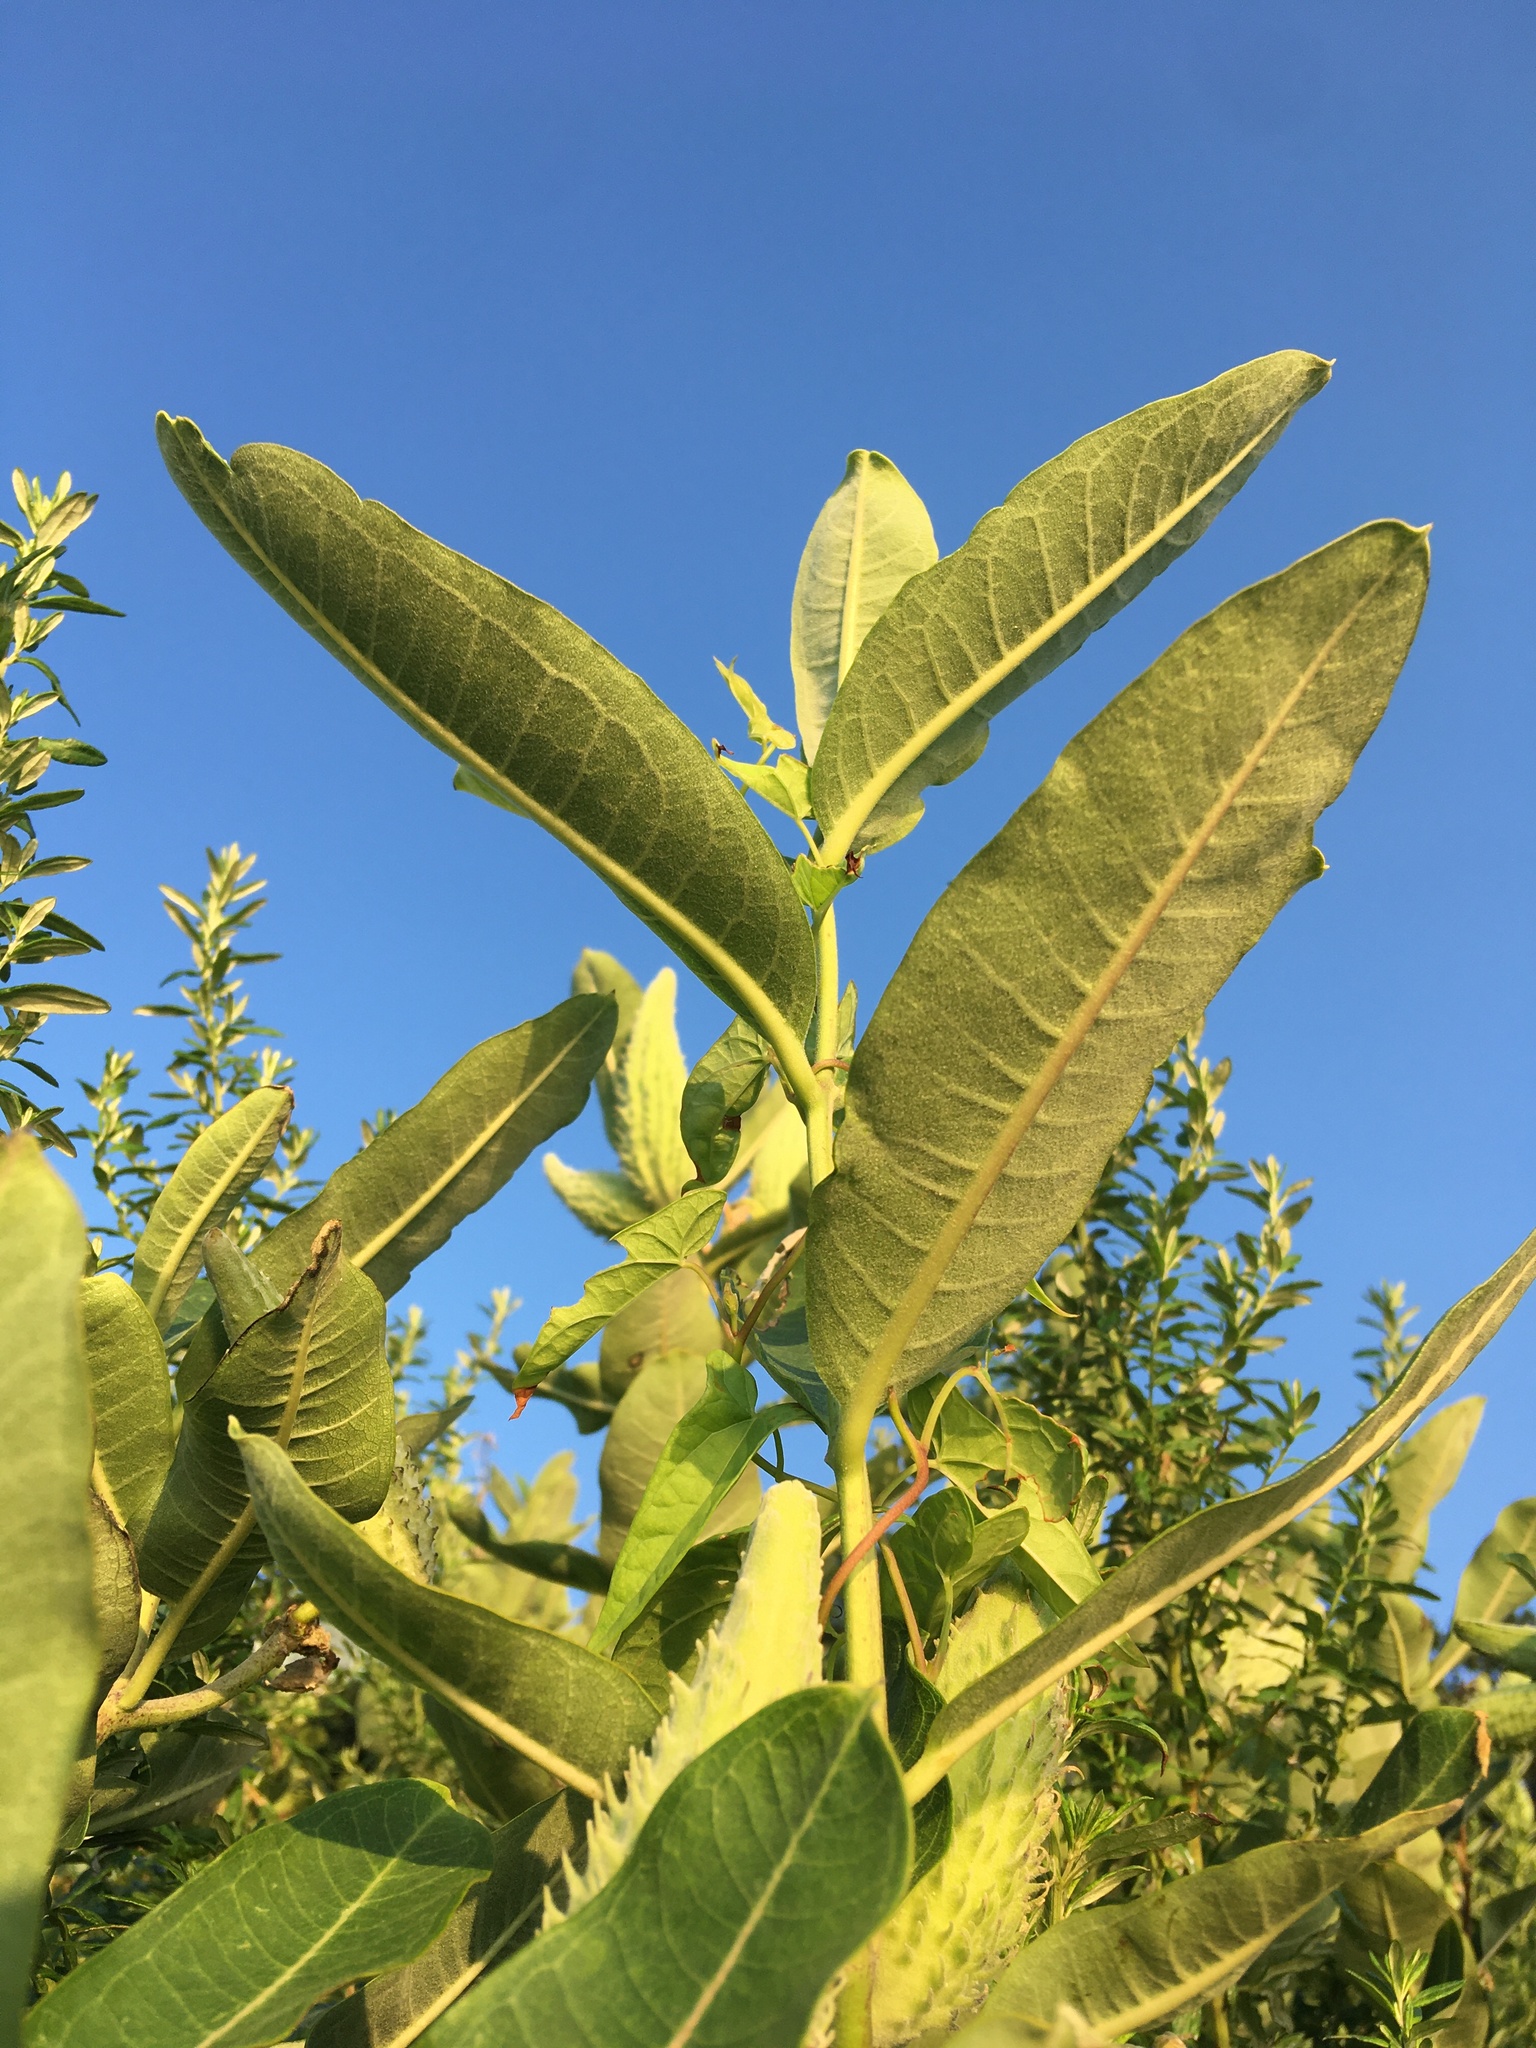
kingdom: Plantae
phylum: Tracheophyta
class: Magnoliopsida
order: Gentianales
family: Apocynaceae
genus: Asclepias
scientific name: Asclepias syriaca
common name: Common milkweed
